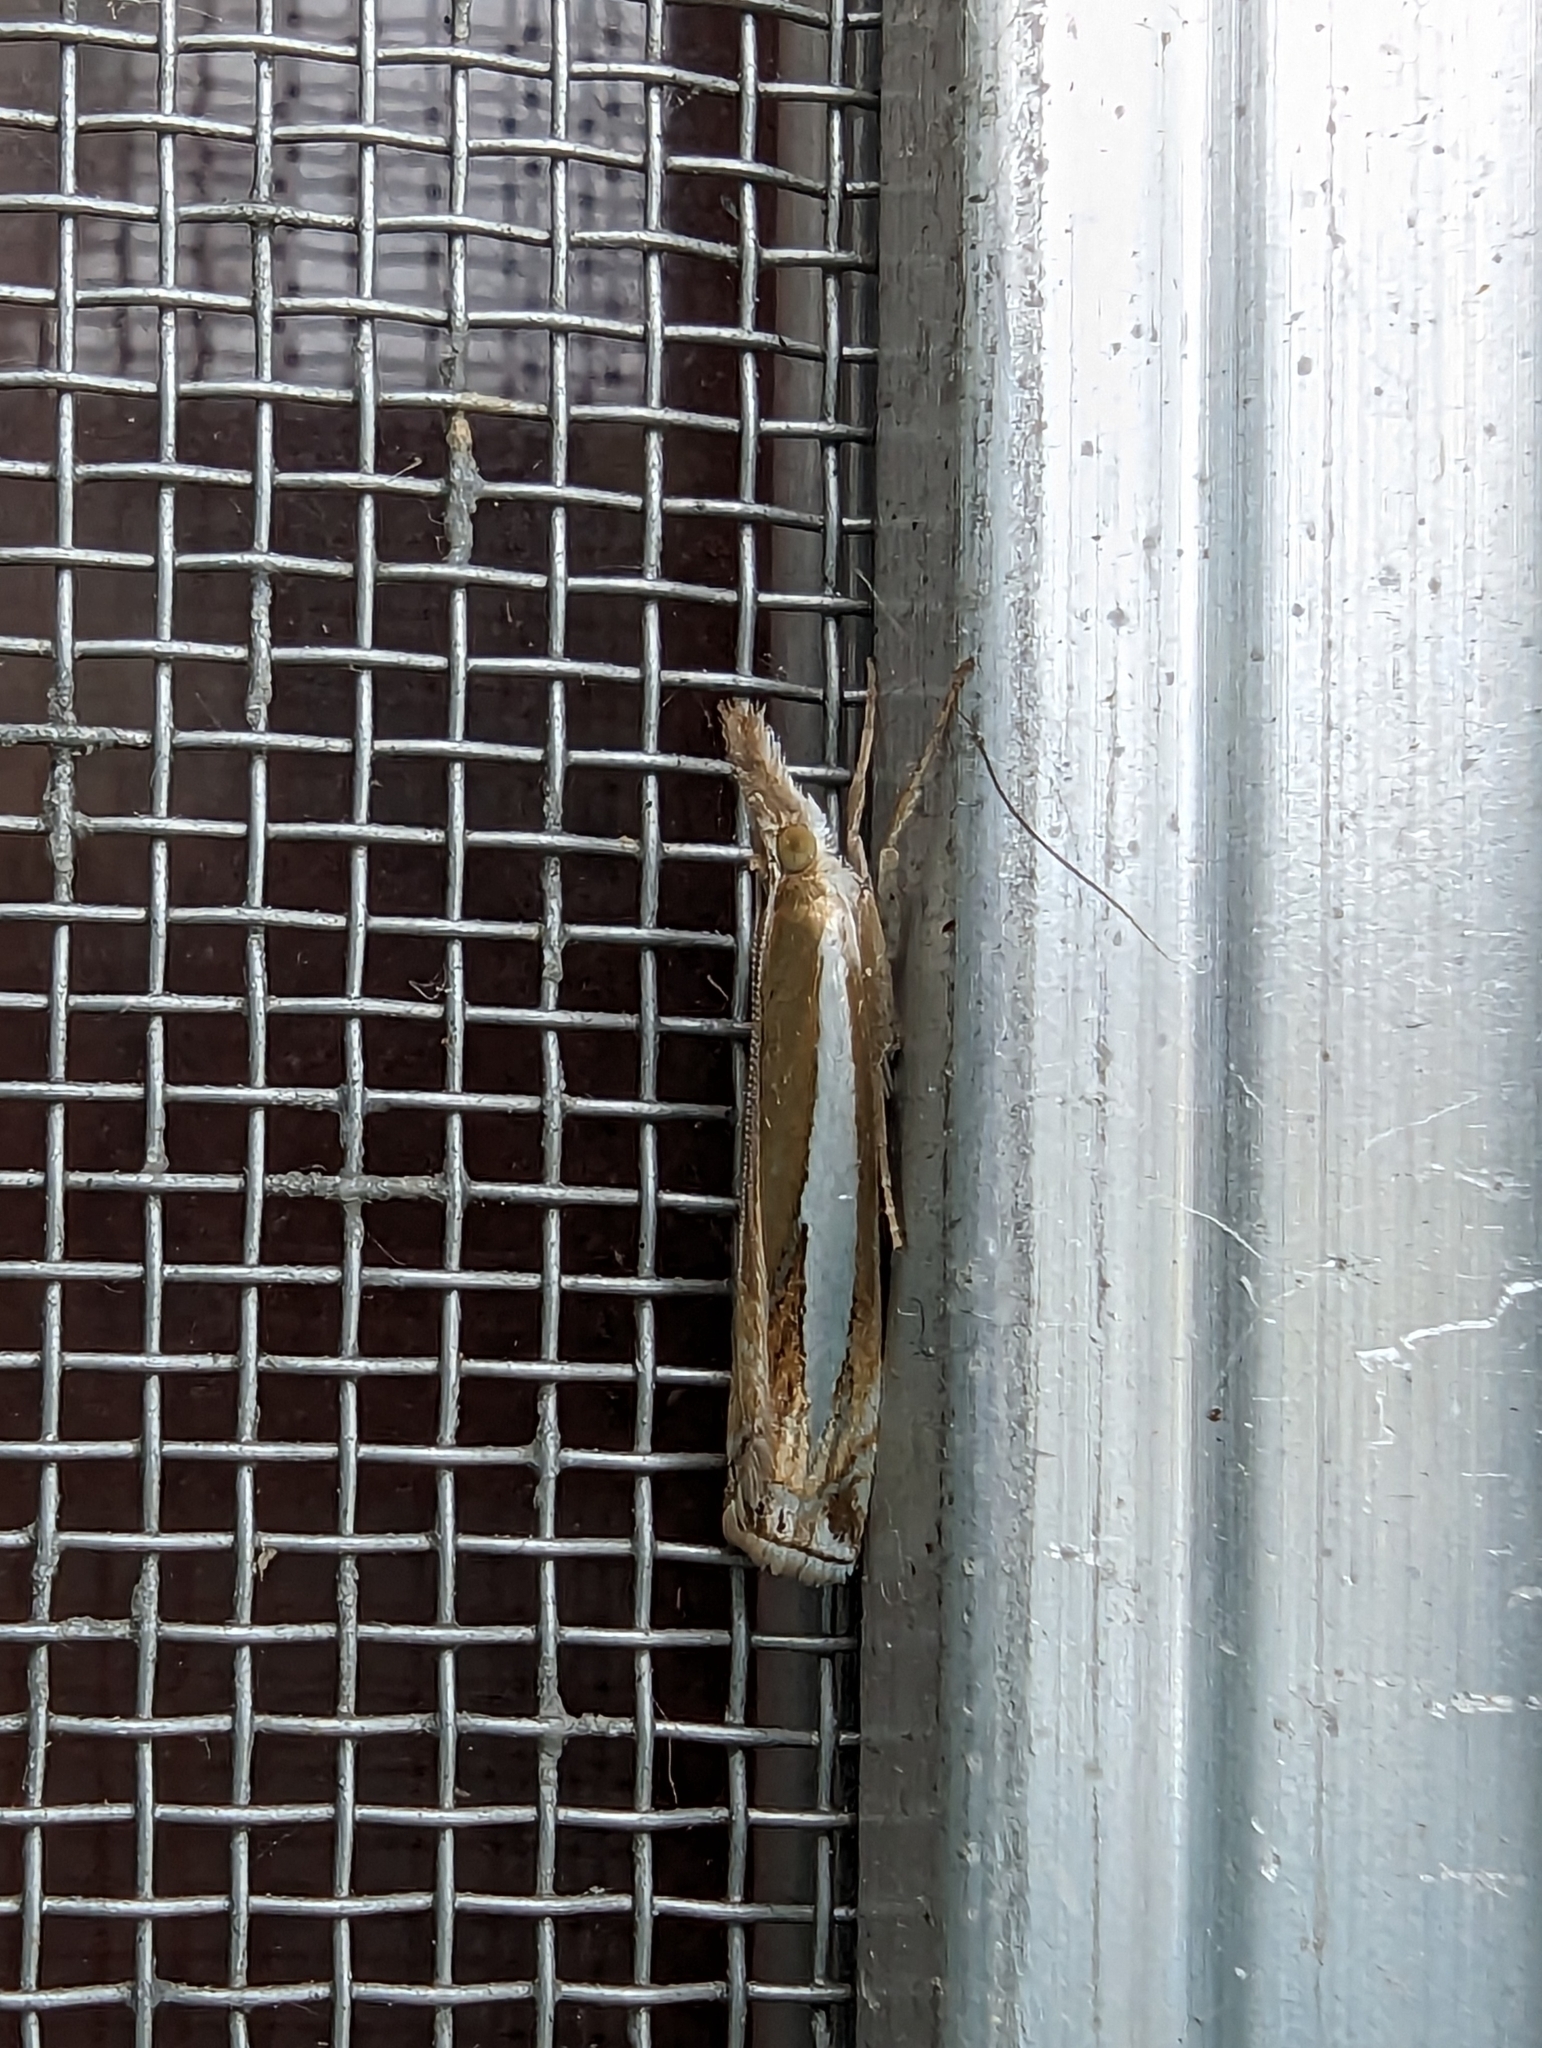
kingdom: Animalia
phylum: Arthropoda
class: Insecta
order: Lepidoptera
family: Crambidae
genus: Crambus
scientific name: Crambus praefectellus
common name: Common grass-veneer
